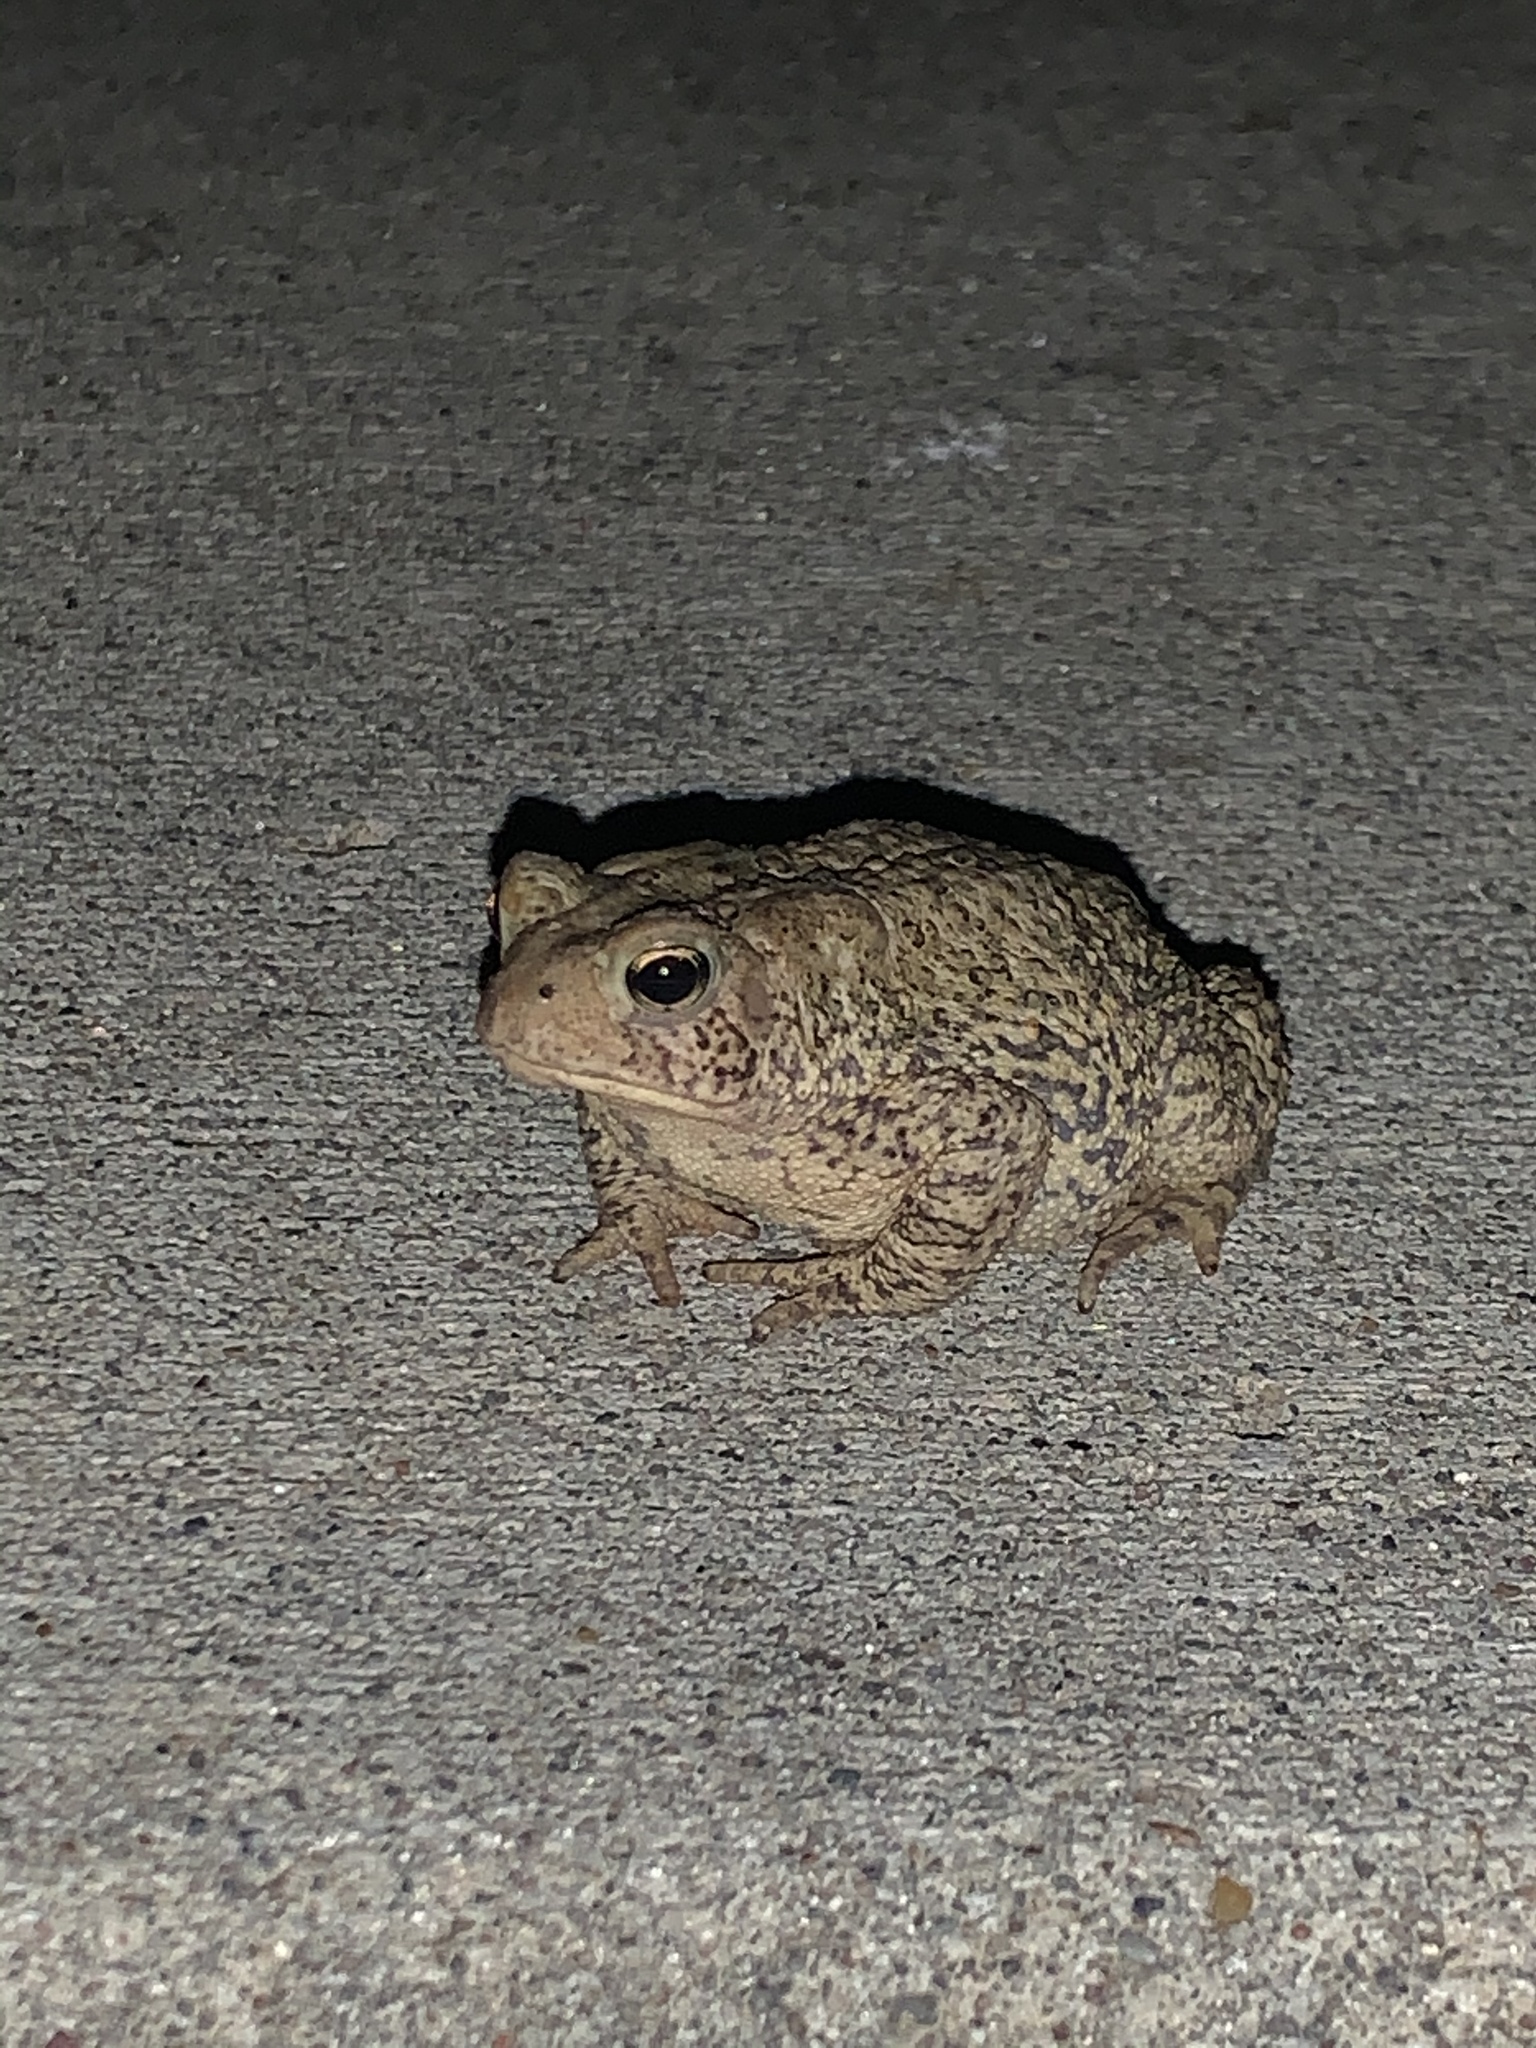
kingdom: Animalia
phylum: Chordata
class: Amphibia
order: Anura
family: Bufonidae
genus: Anaxyrus
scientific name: Anaxyrus americanus
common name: American toad
